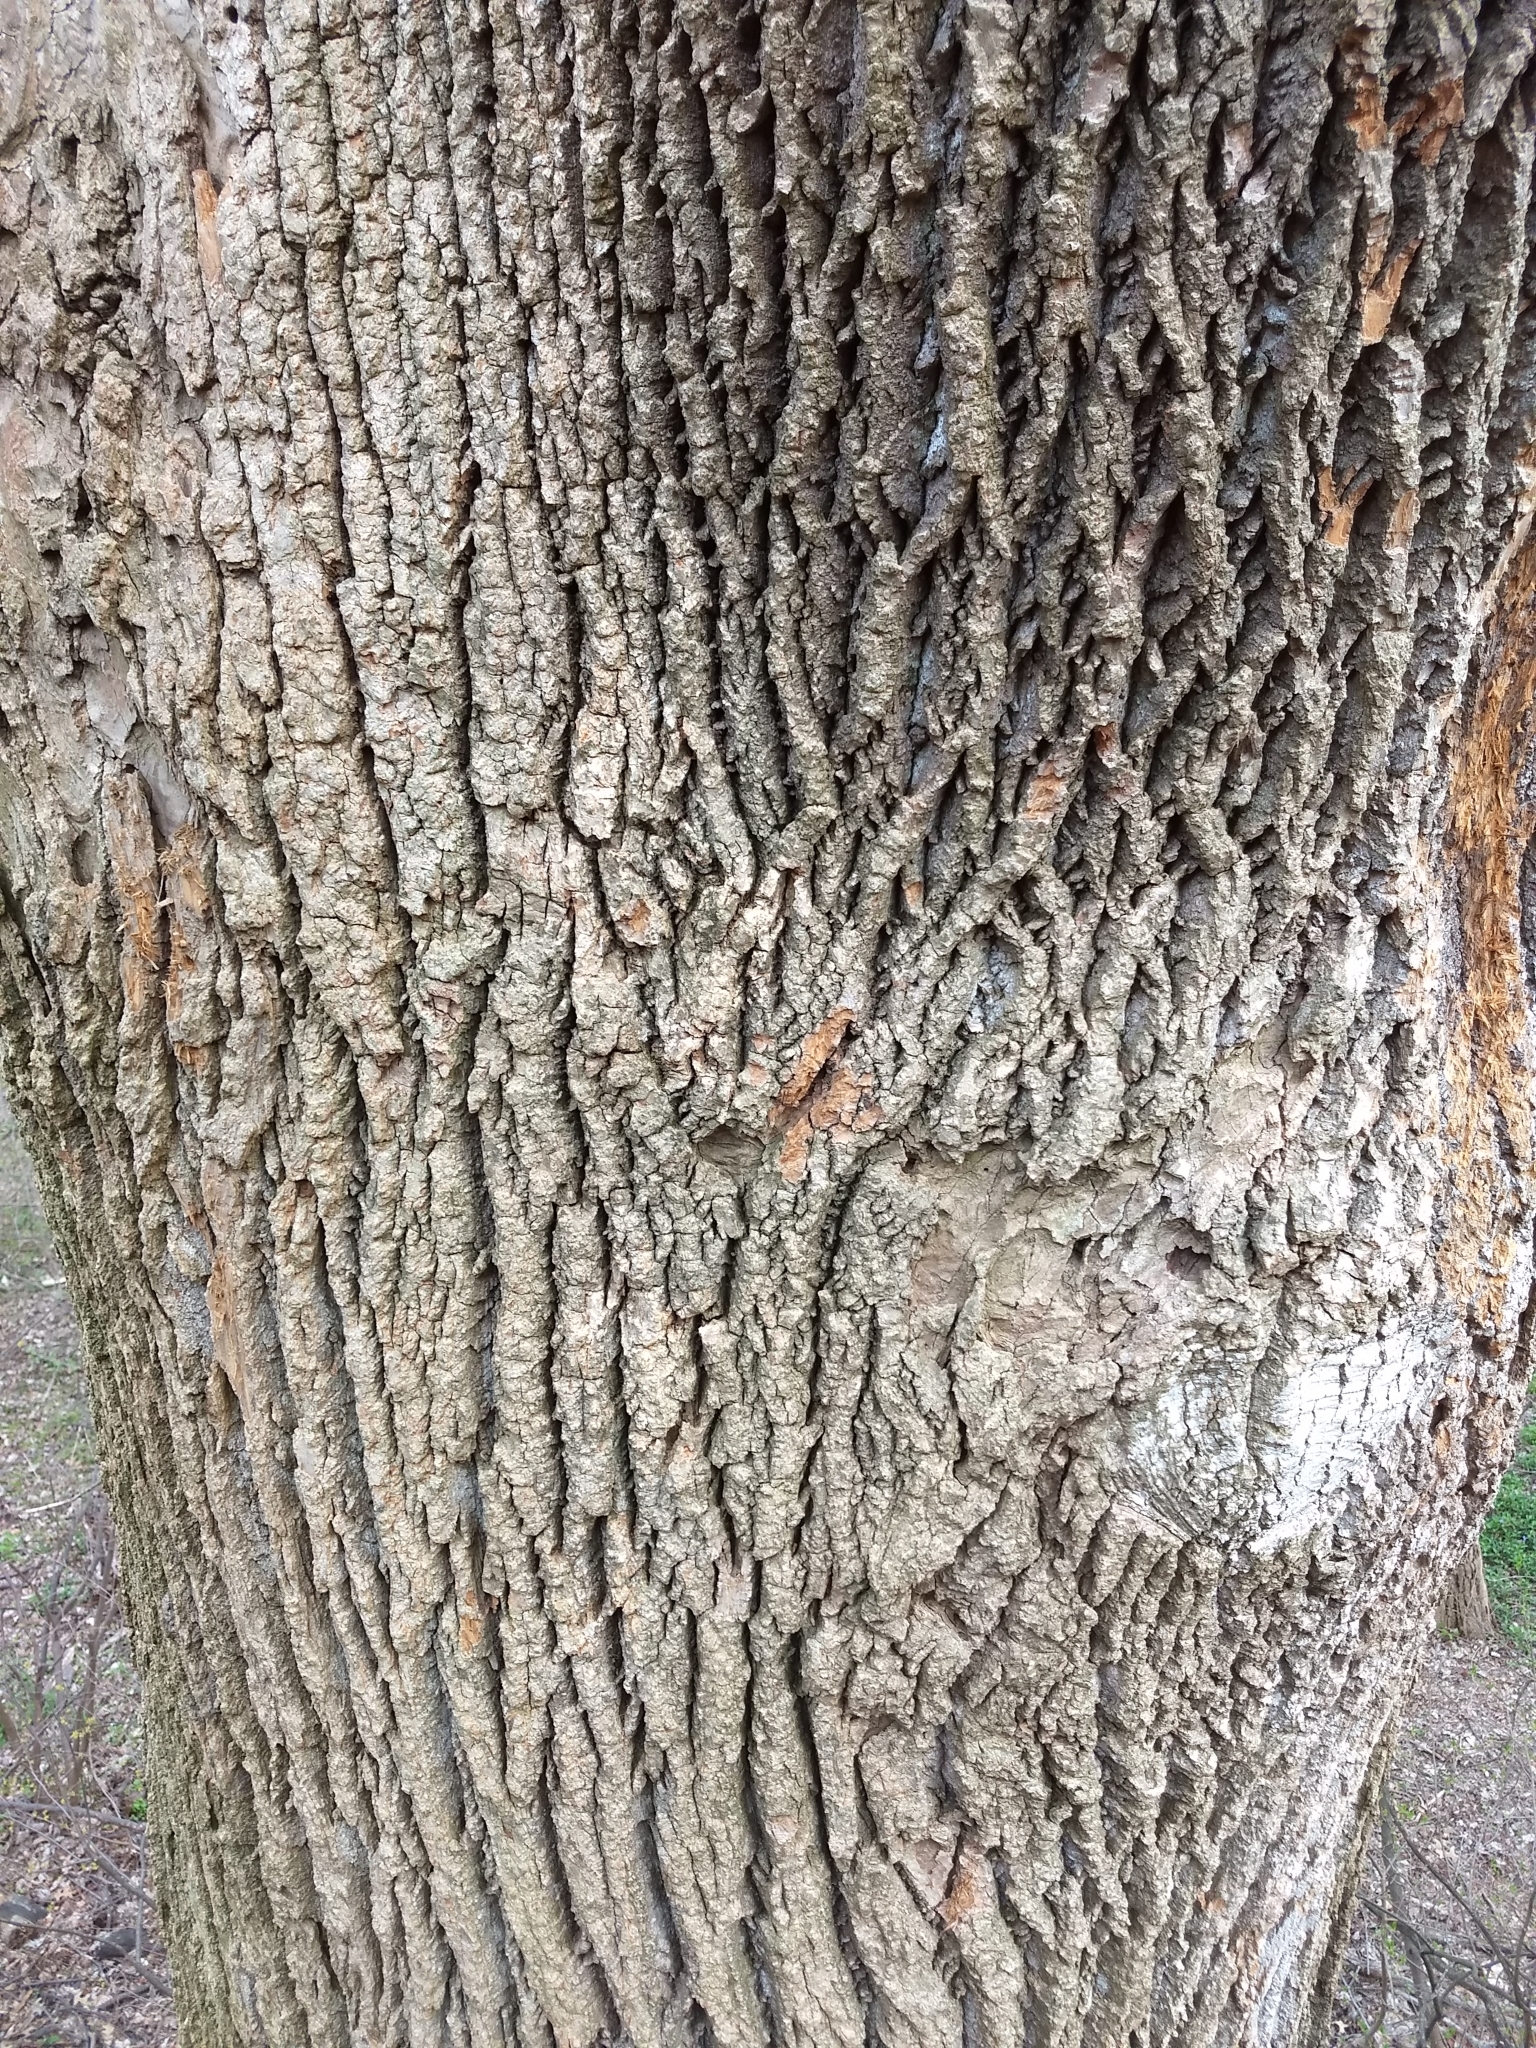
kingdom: Plantae
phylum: Tracheophyta
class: Magnoliopsida
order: Magnoliales
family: Magnoliaceae
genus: Liriodendron
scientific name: Liriodendron tulipifera
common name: Tulip tree
